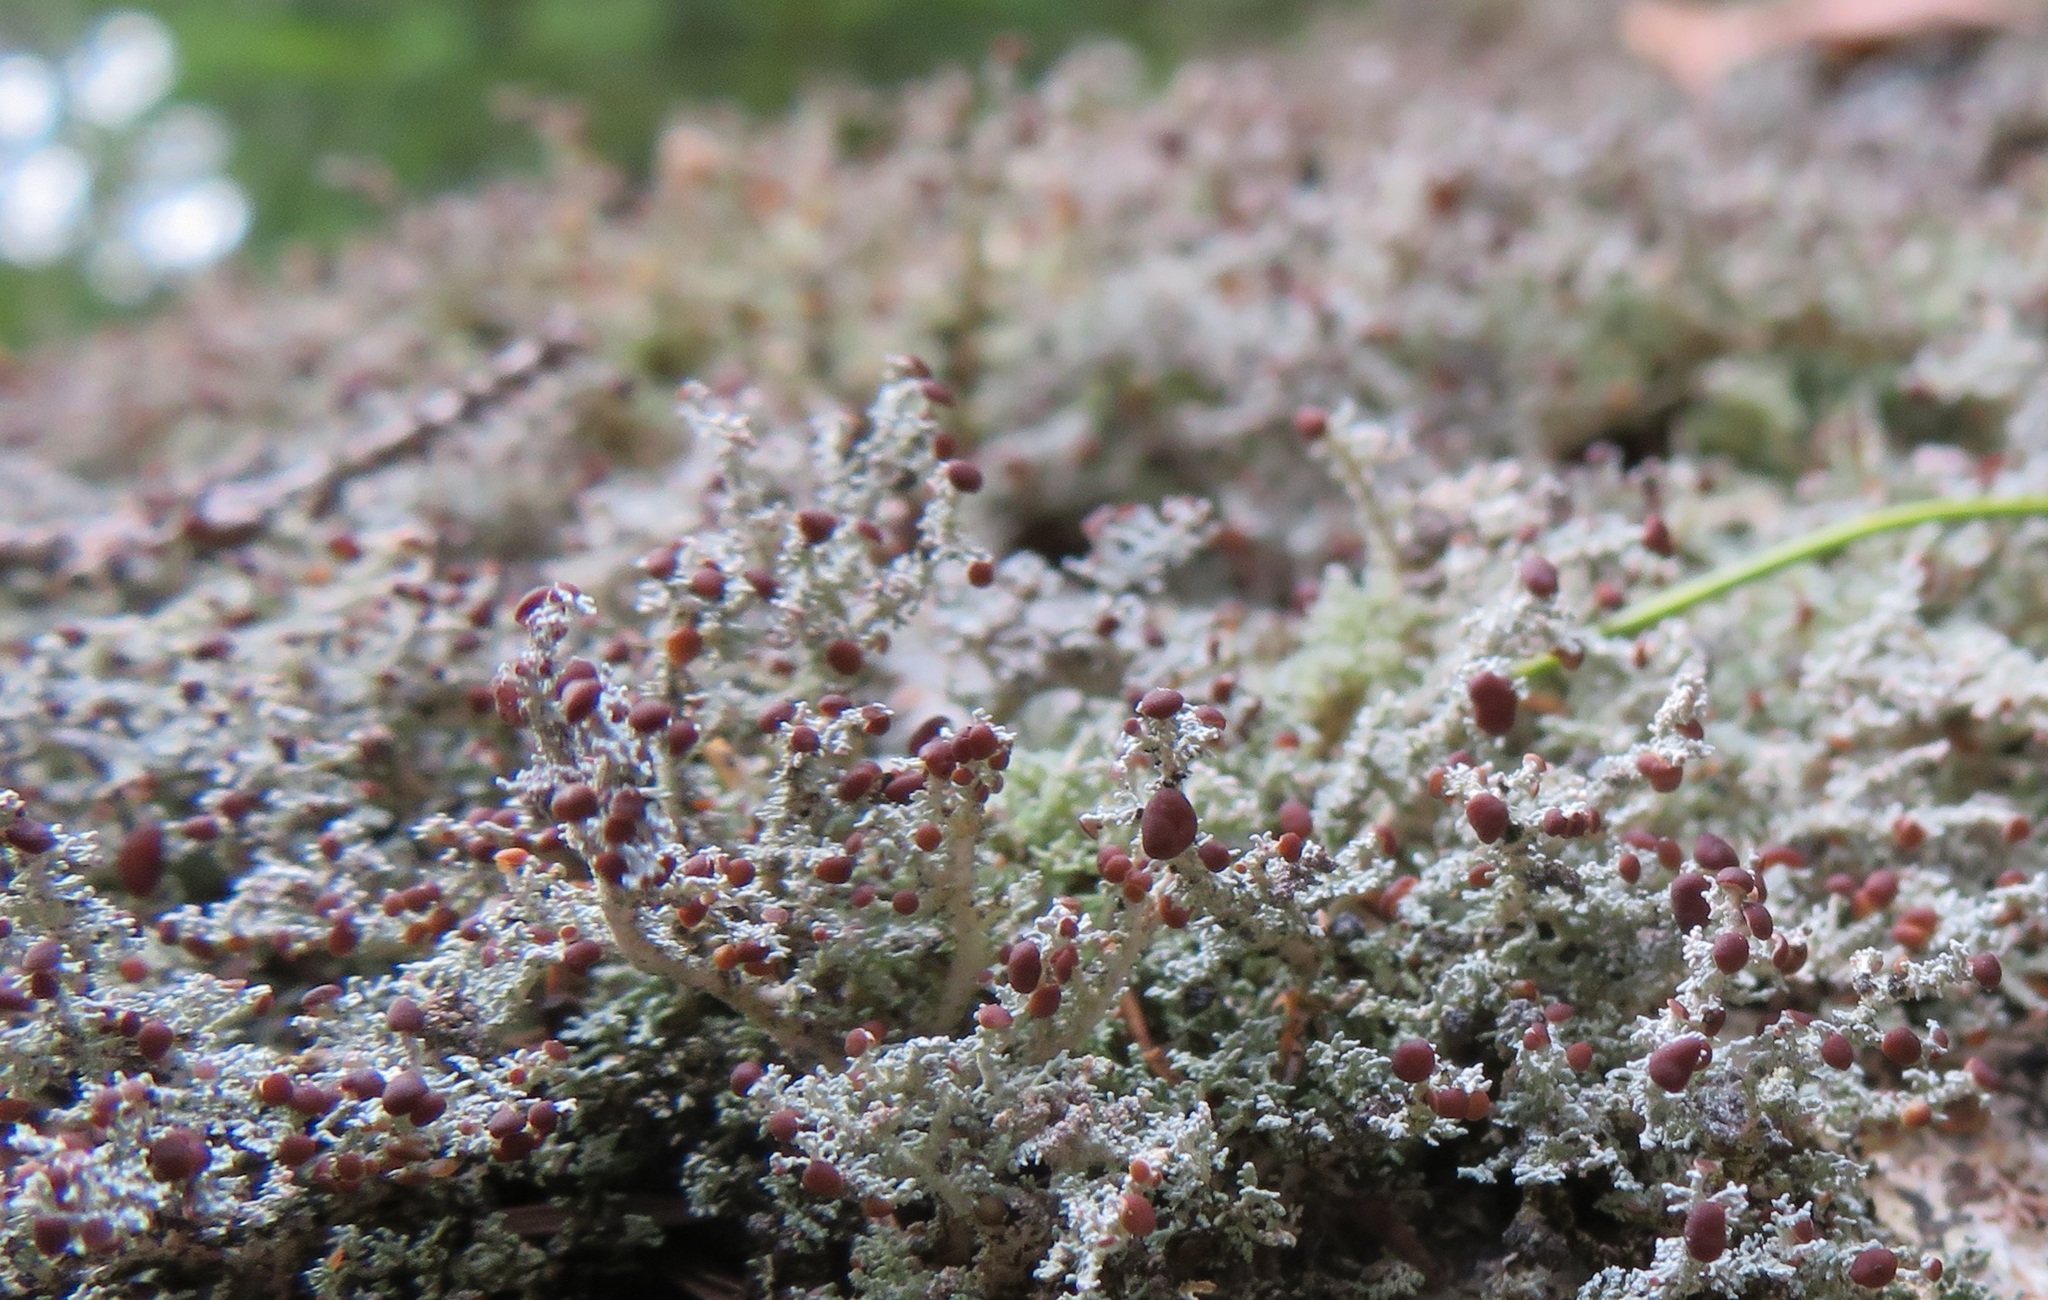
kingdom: Fungi
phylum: Ascomycota
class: Lecanoromycetes
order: Lecanorales
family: Stereocaulaceae
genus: Stereocaulon
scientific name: Stereocaulon dactylophyllum
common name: Finger-scale foam lichen
